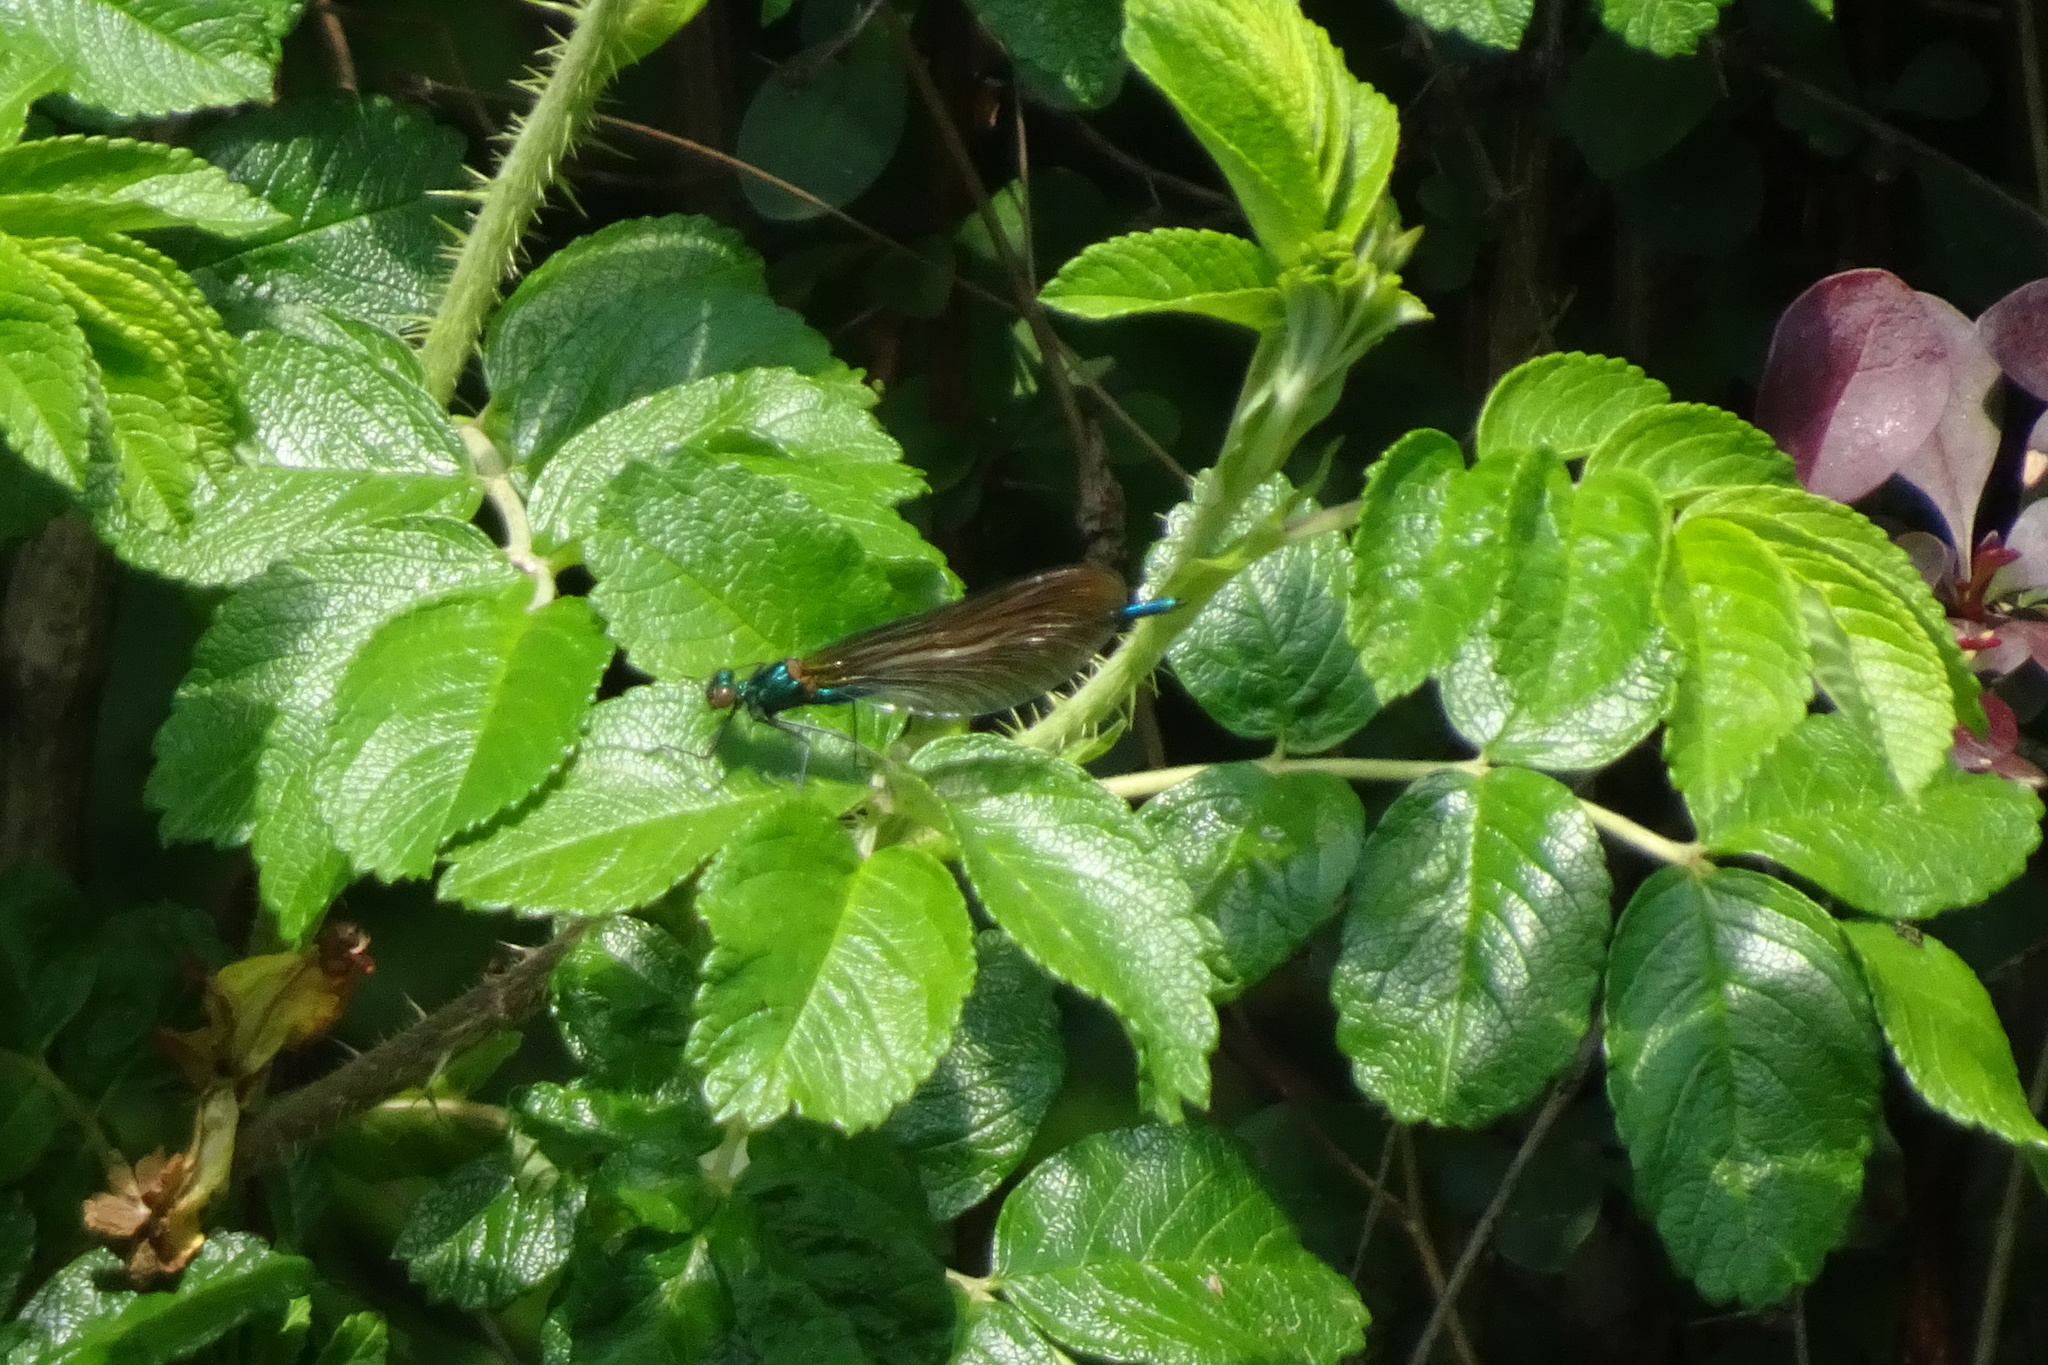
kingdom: Animalia
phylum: Arthropoda
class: Insecta
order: Odonata
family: Calopterygidae
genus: Calopteryx
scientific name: Calopteryx virgo
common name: Beautiful demoiselle
